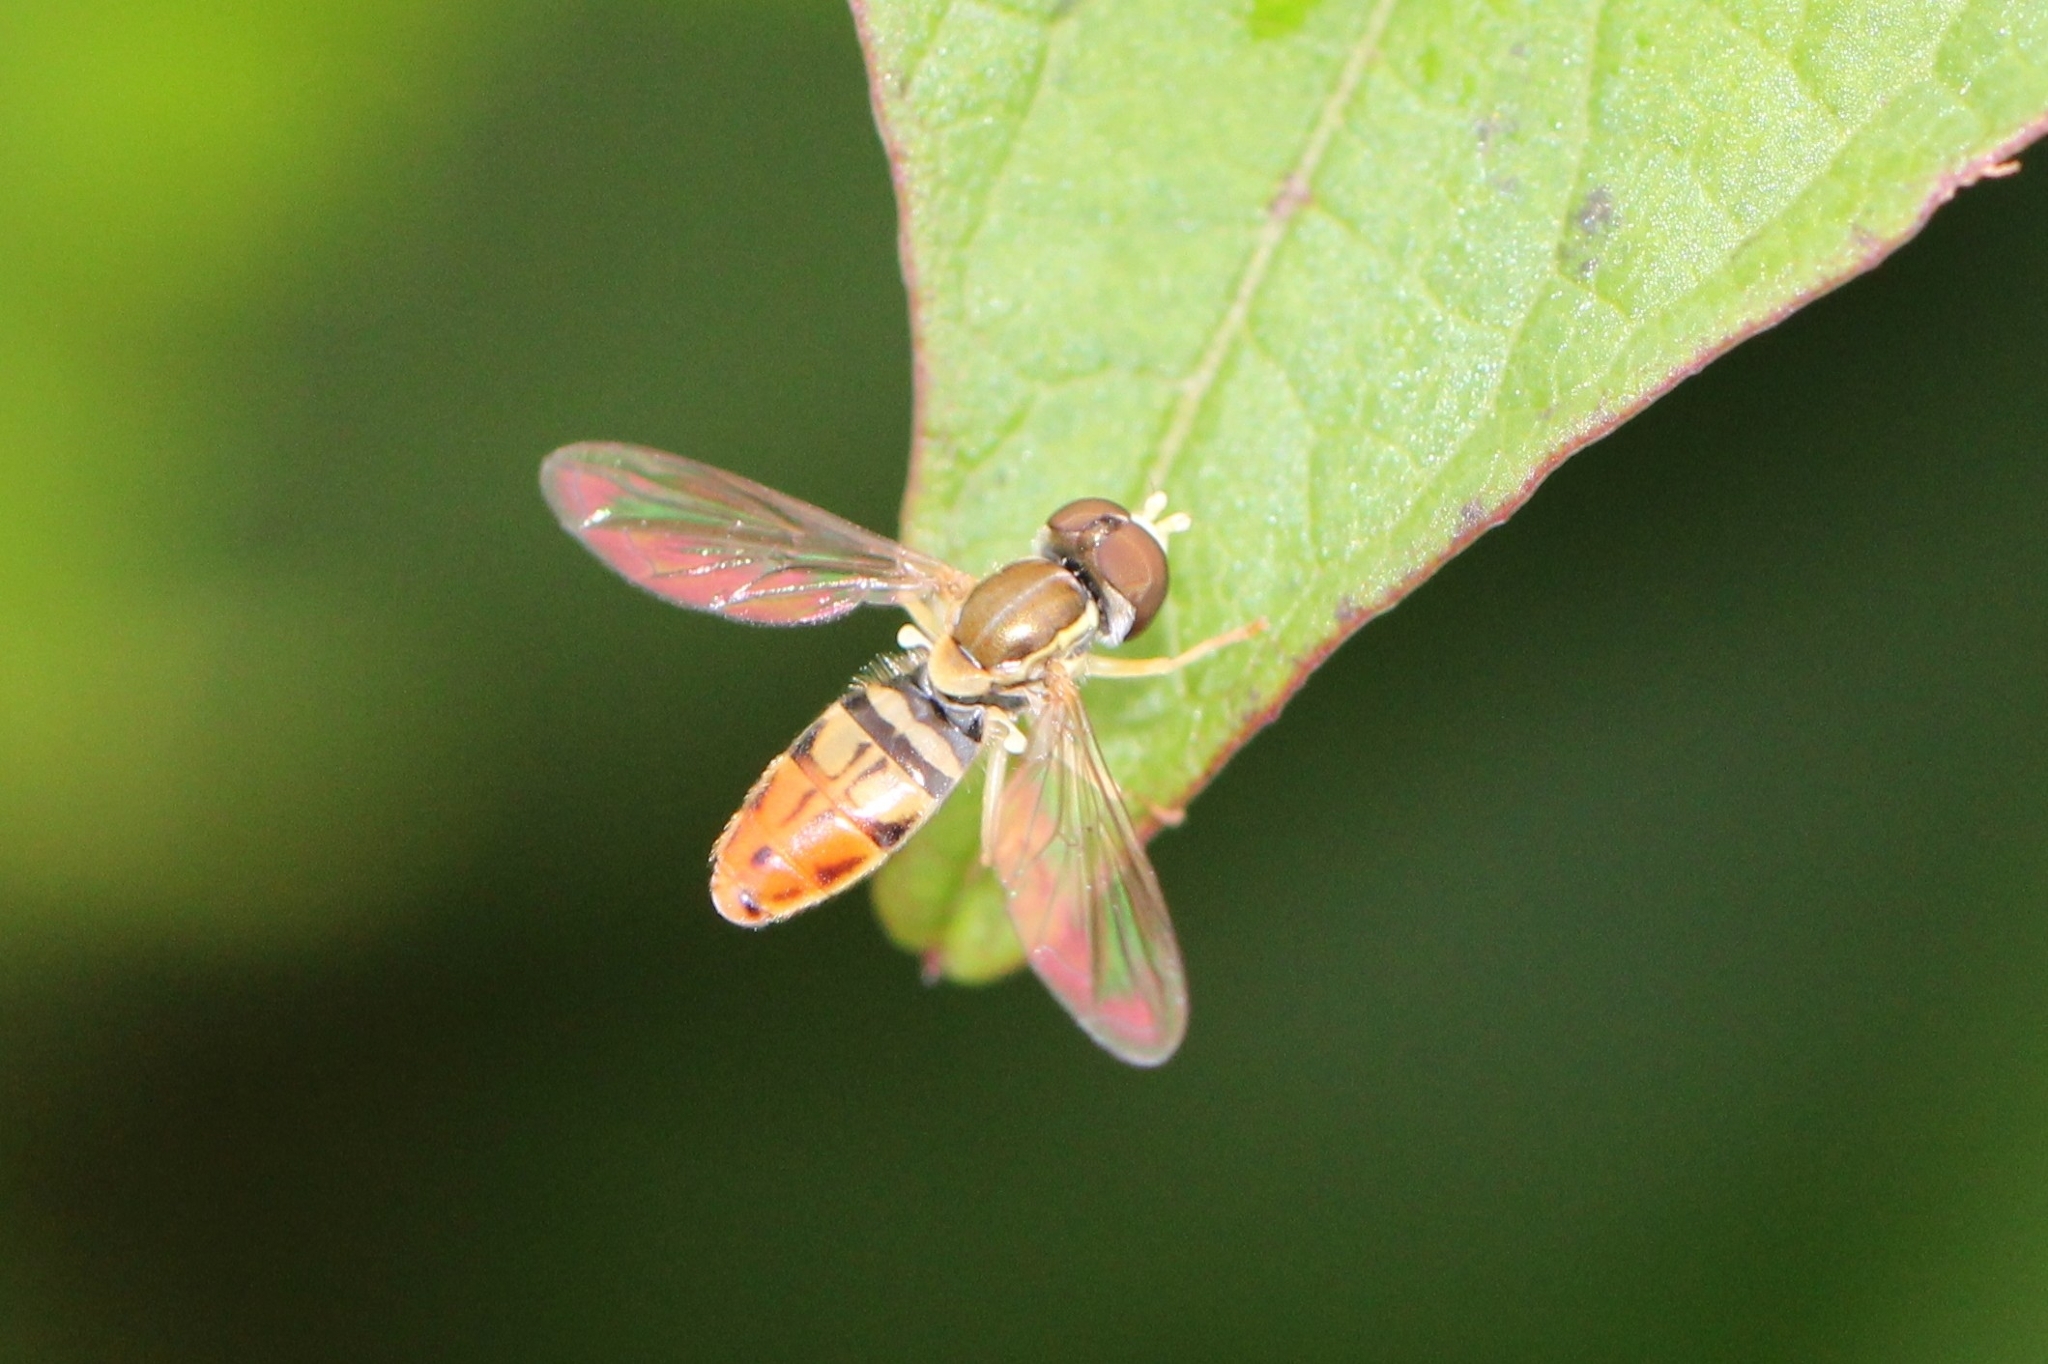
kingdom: Animalia
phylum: Arthropoda
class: Insecta
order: Diptera
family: Syrphidae
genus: Toxomerus
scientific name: Toxomerus marginatus
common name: Syrphid fly
